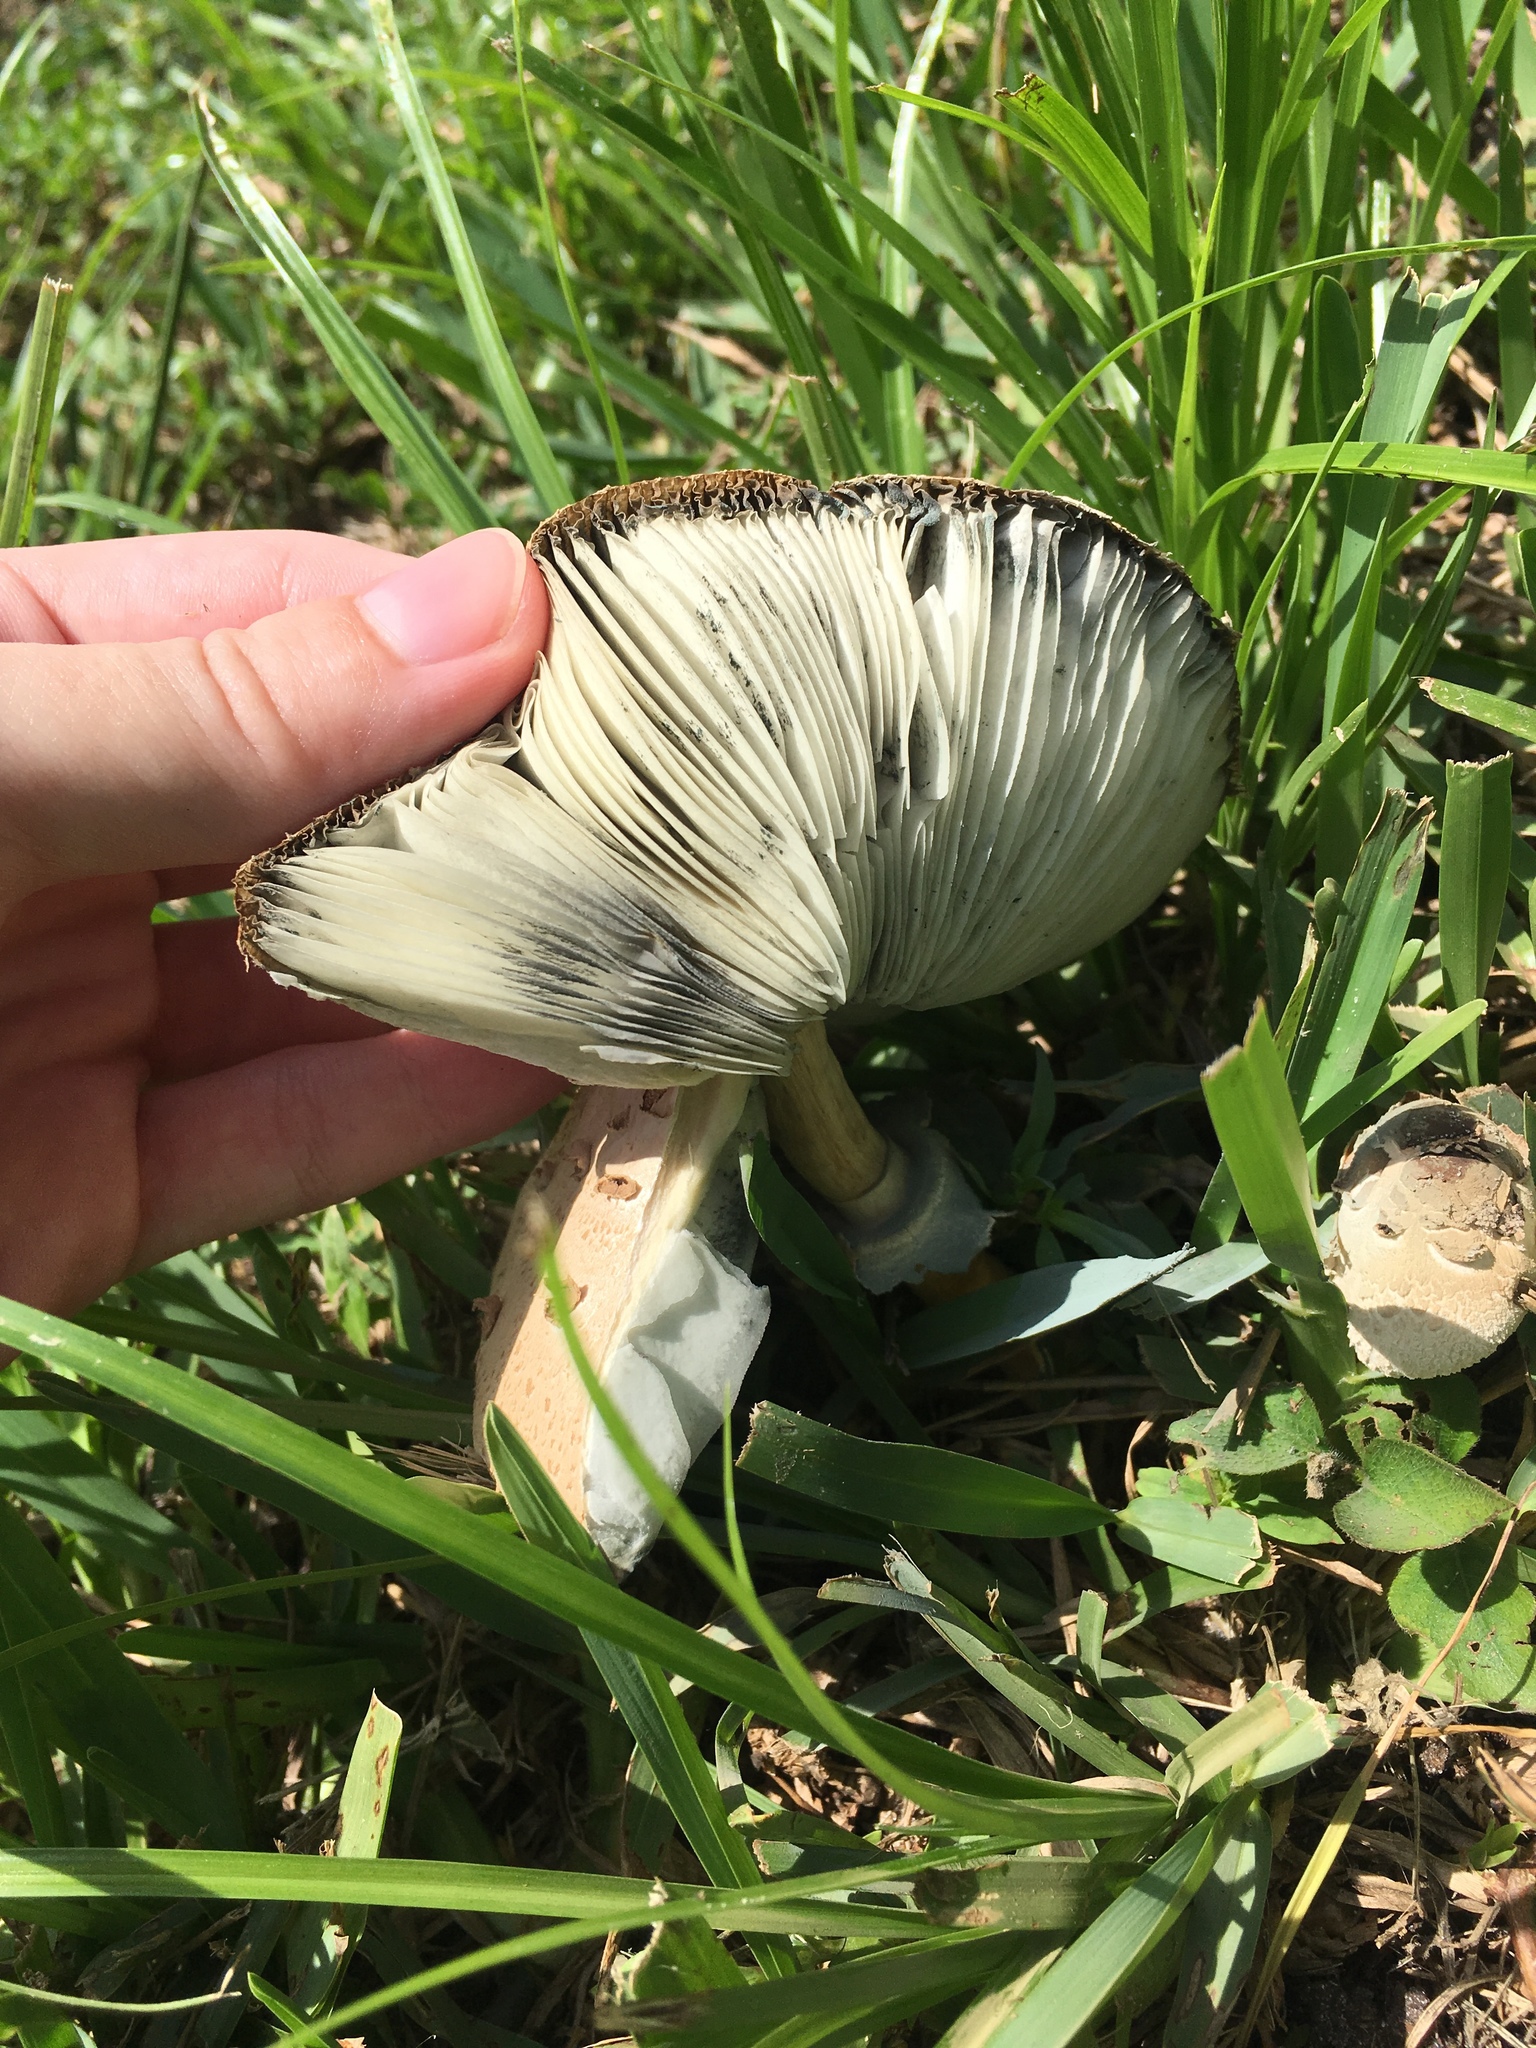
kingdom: Fungi
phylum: Basidiomycota
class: Agaricomycetes
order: Agaricales
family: Agaricaceae
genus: Chlorophyllum
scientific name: Chlorophyllum molybdites
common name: False parasol
